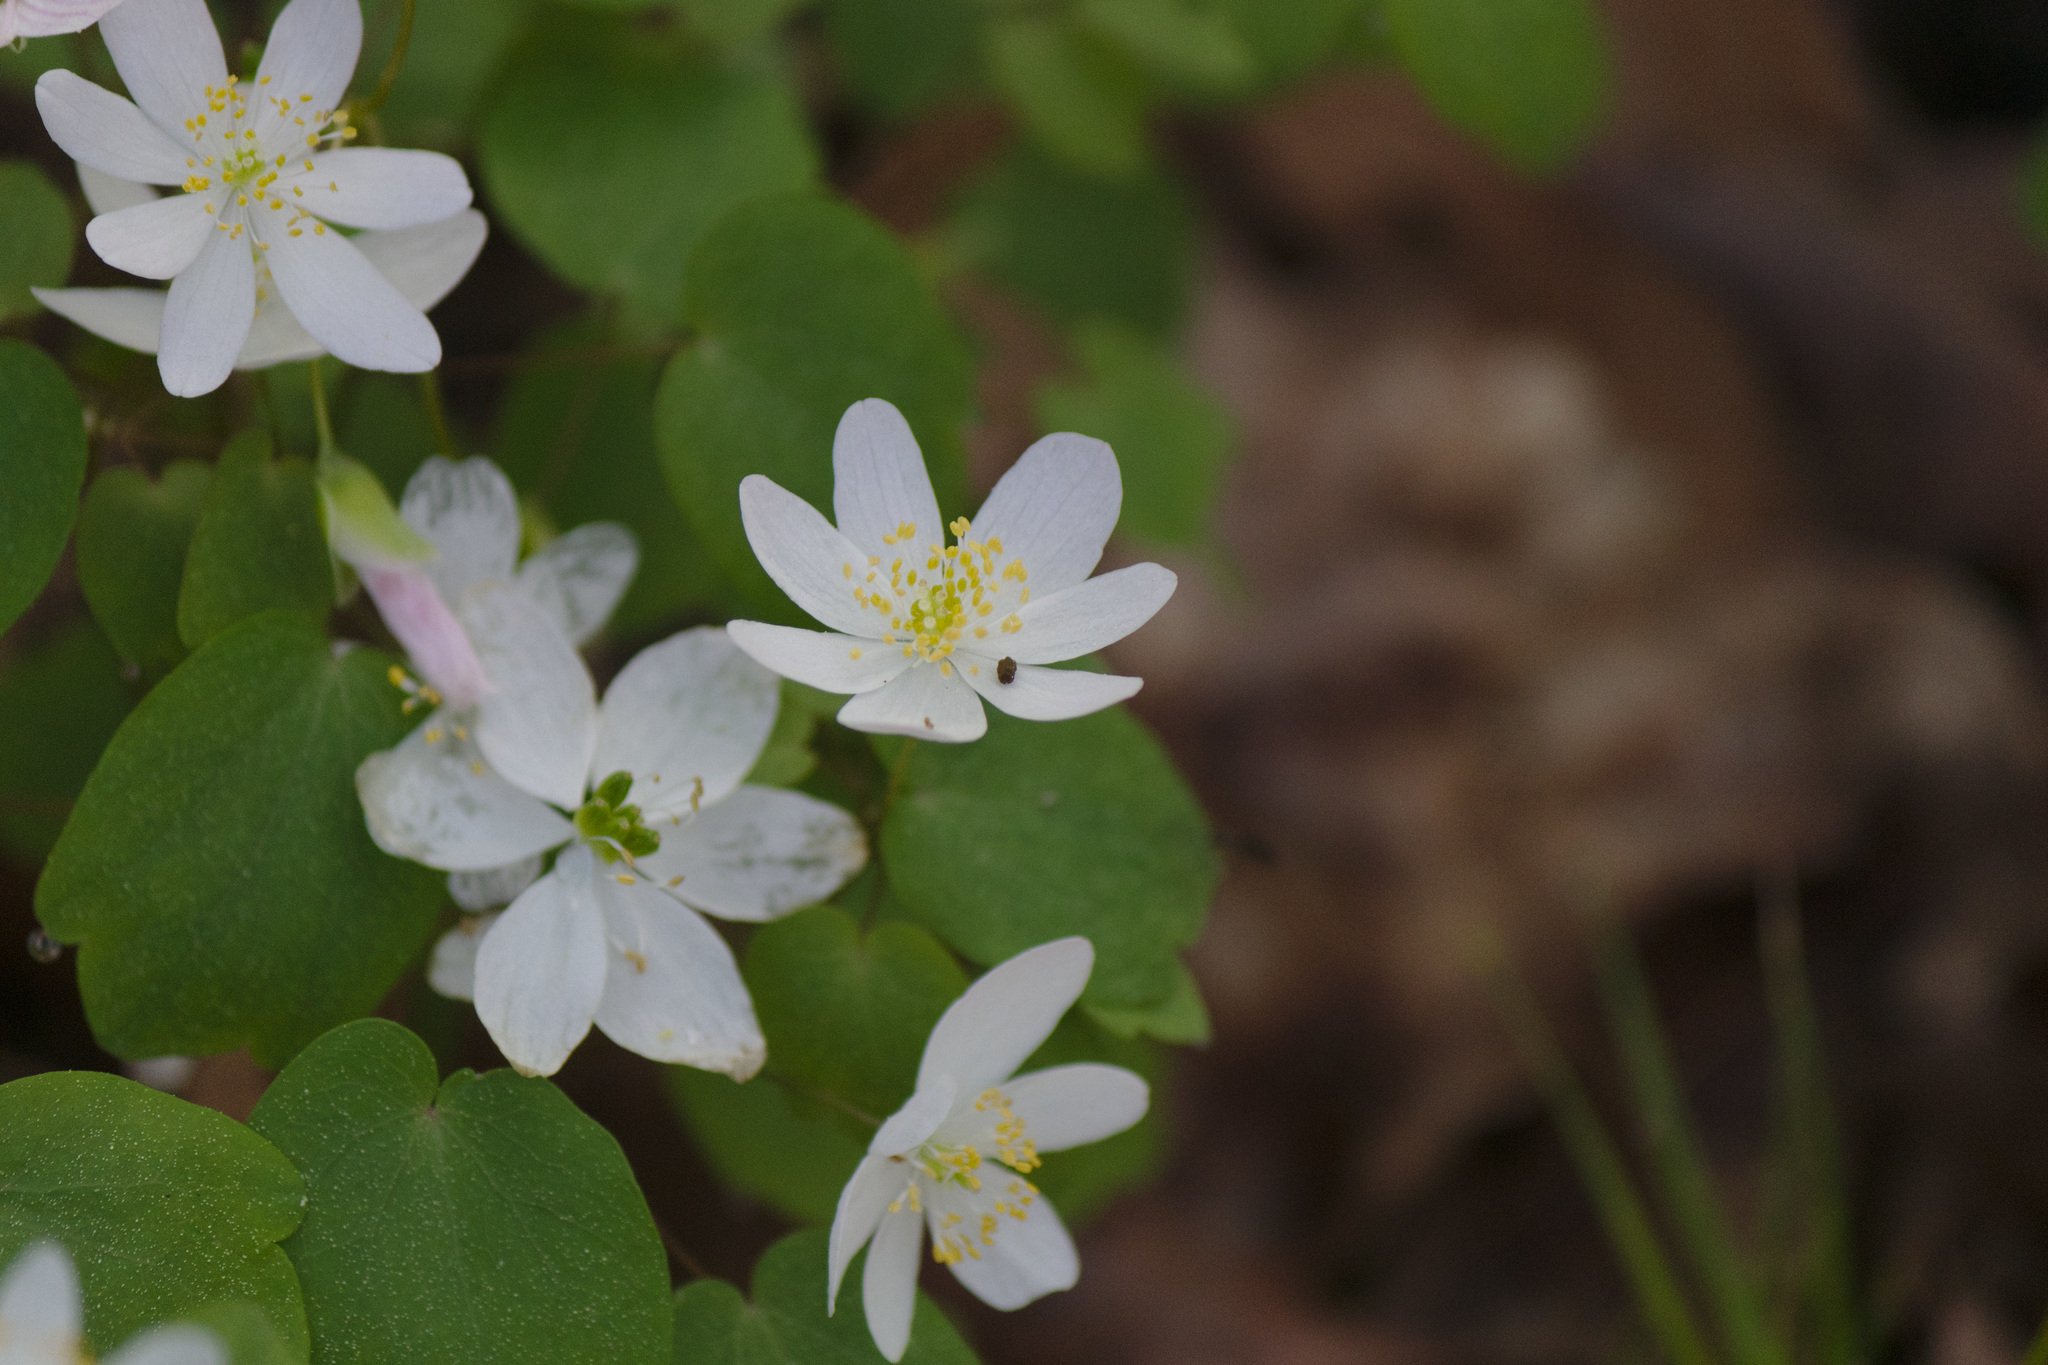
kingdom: Plantae
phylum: Tracheophyta
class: Magnoliopsida
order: Ranunculales
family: Ranunculaceae
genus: Thalictrum
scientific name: Thalictrum thalictroides
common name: Rue-anemone
